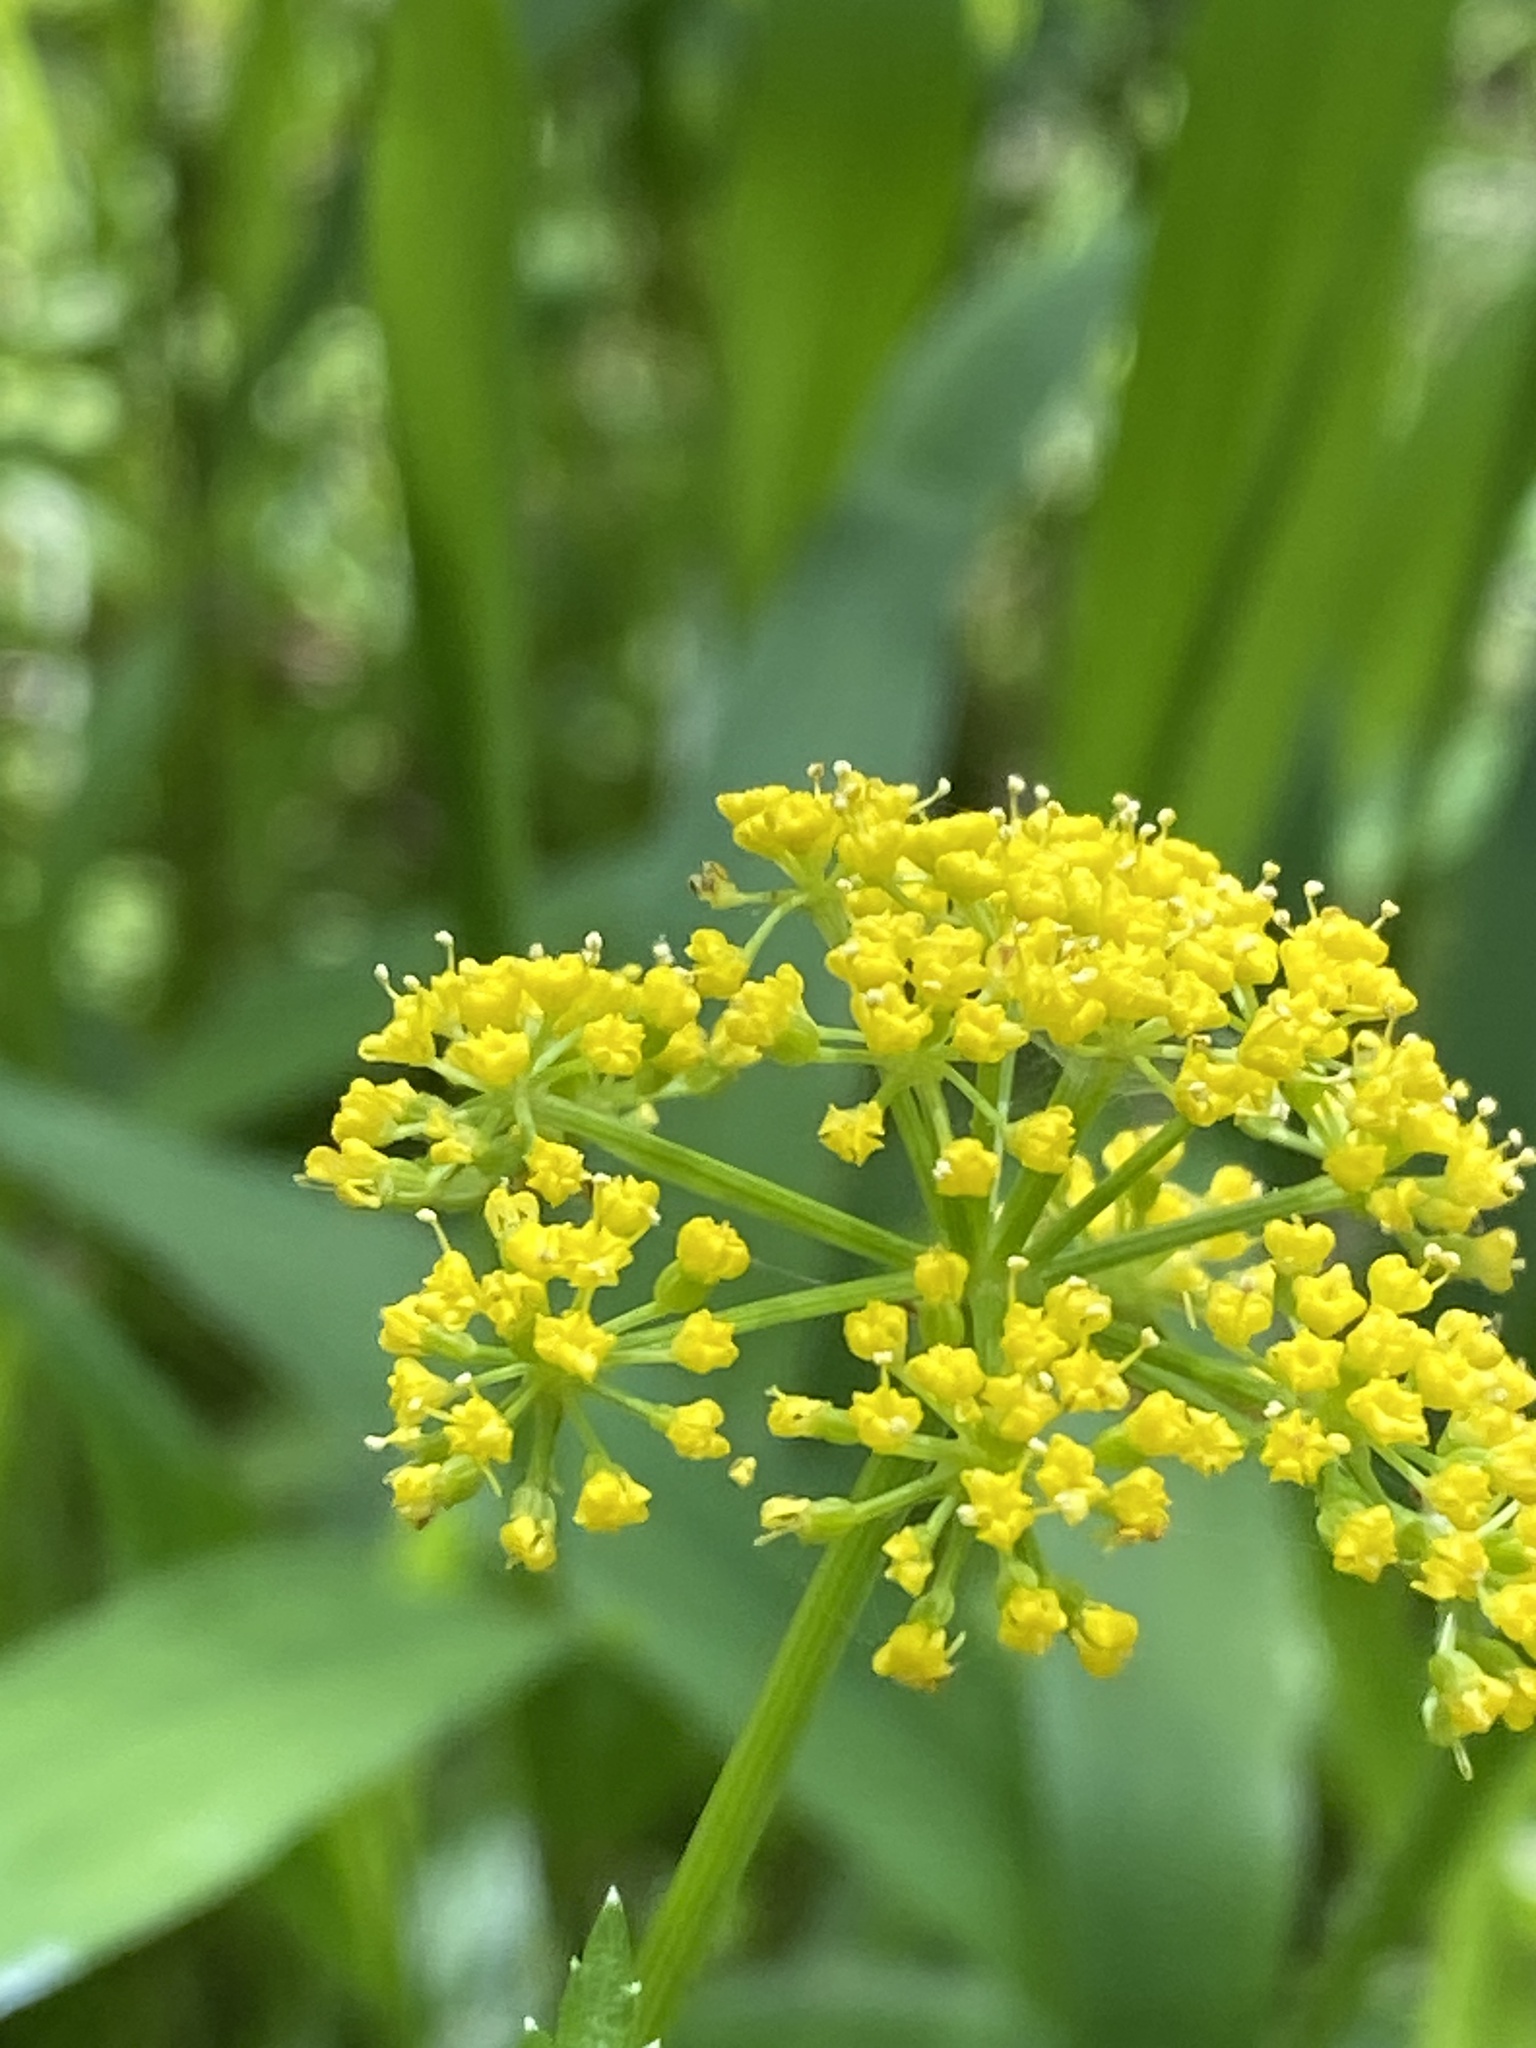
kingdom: Plantae
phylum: Tracheophyta
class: Magnoliopsida
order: Apiales
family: Apiaceae
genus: Zizia
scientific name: Zizia aurea
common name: Golden alexanders
